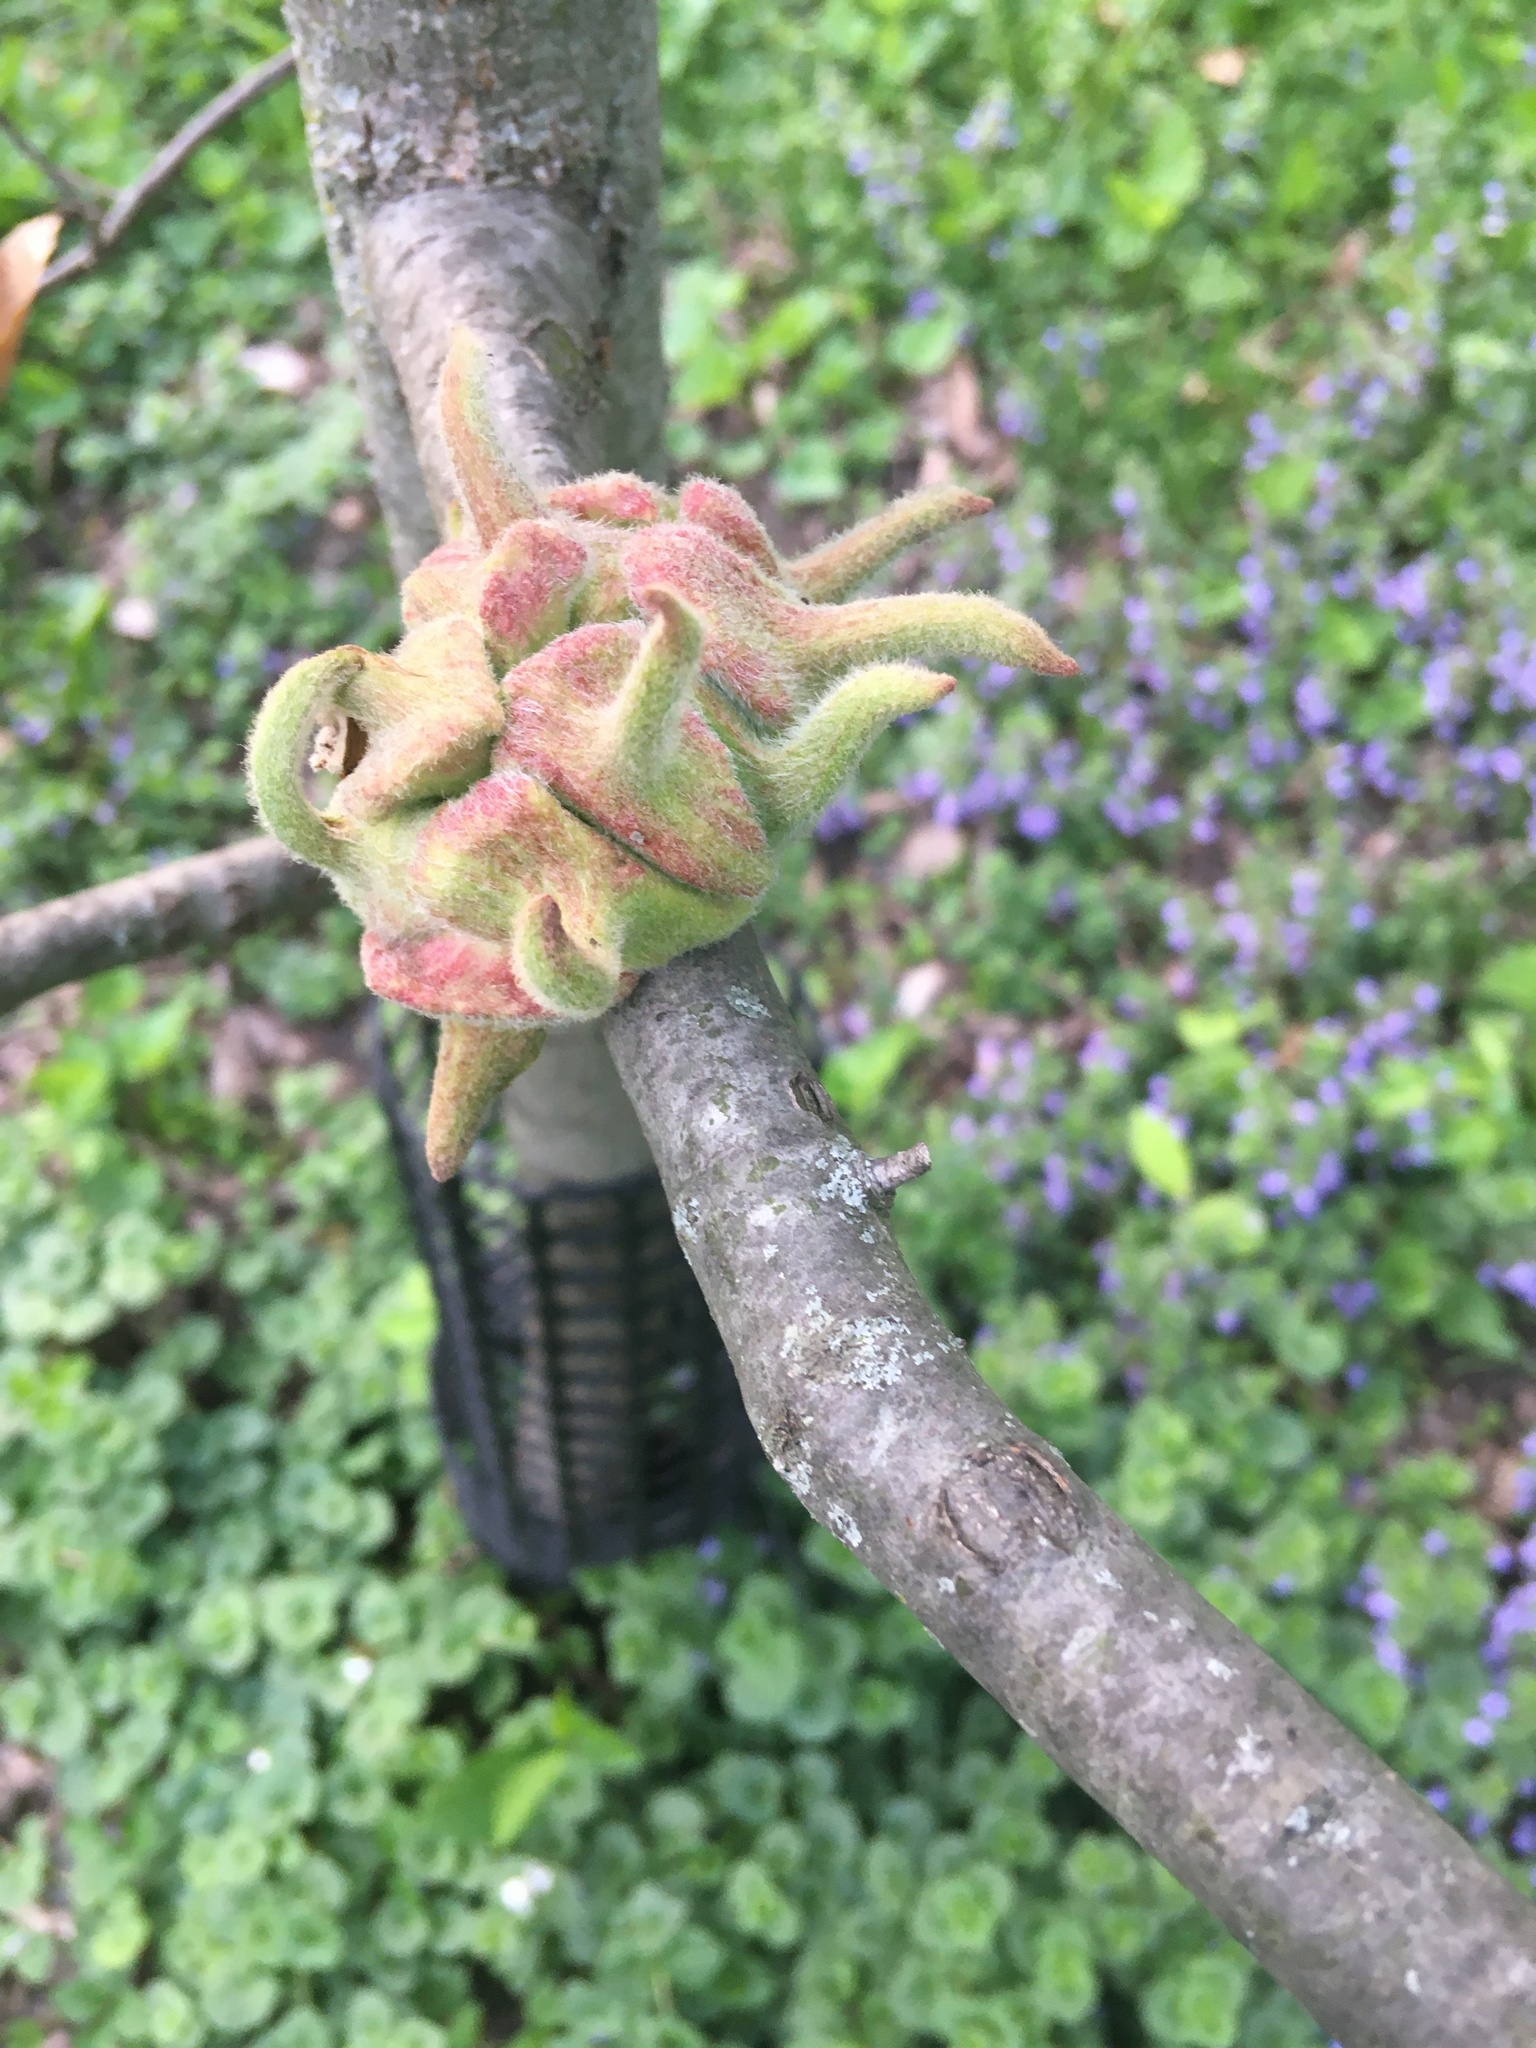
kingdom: Animalia
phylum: Arthropoda
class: Insecta
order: Hymenoptera
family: Cynipidae
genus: Callirhytis
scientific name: Callirhytis
